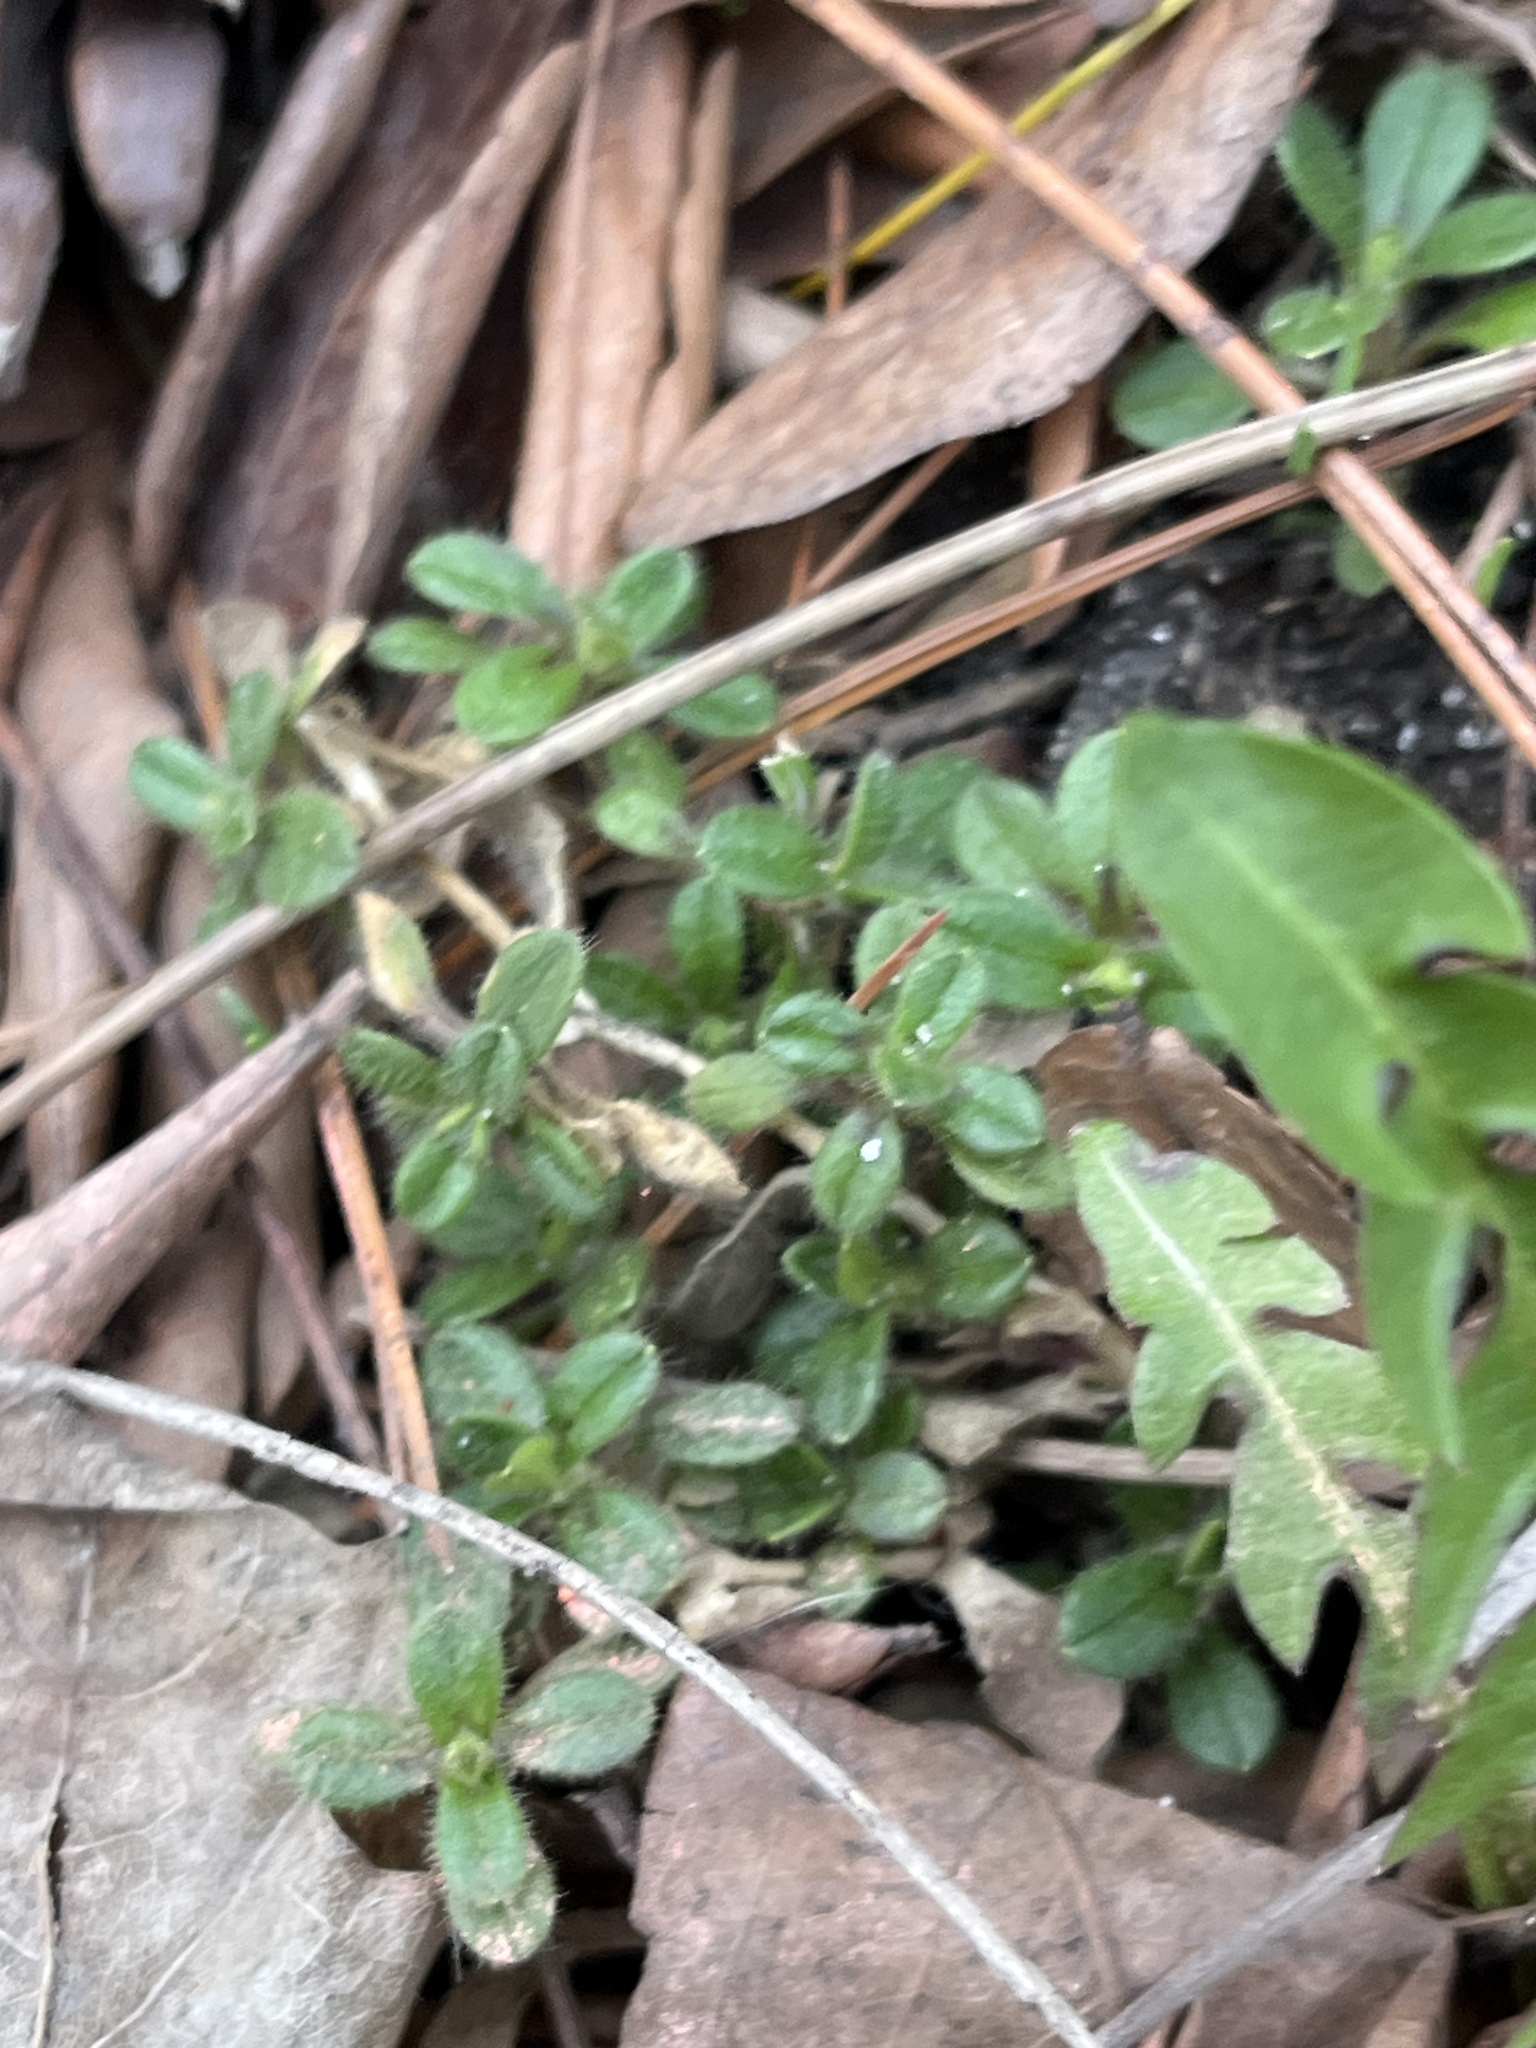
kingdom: Plantae
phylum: Tracheophyta
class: Magnoliopsida
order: Caryophyllales
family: Caryophyllaceae
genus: Cerastium
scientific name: Cerastium fontanum
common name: Common mouse-ear
